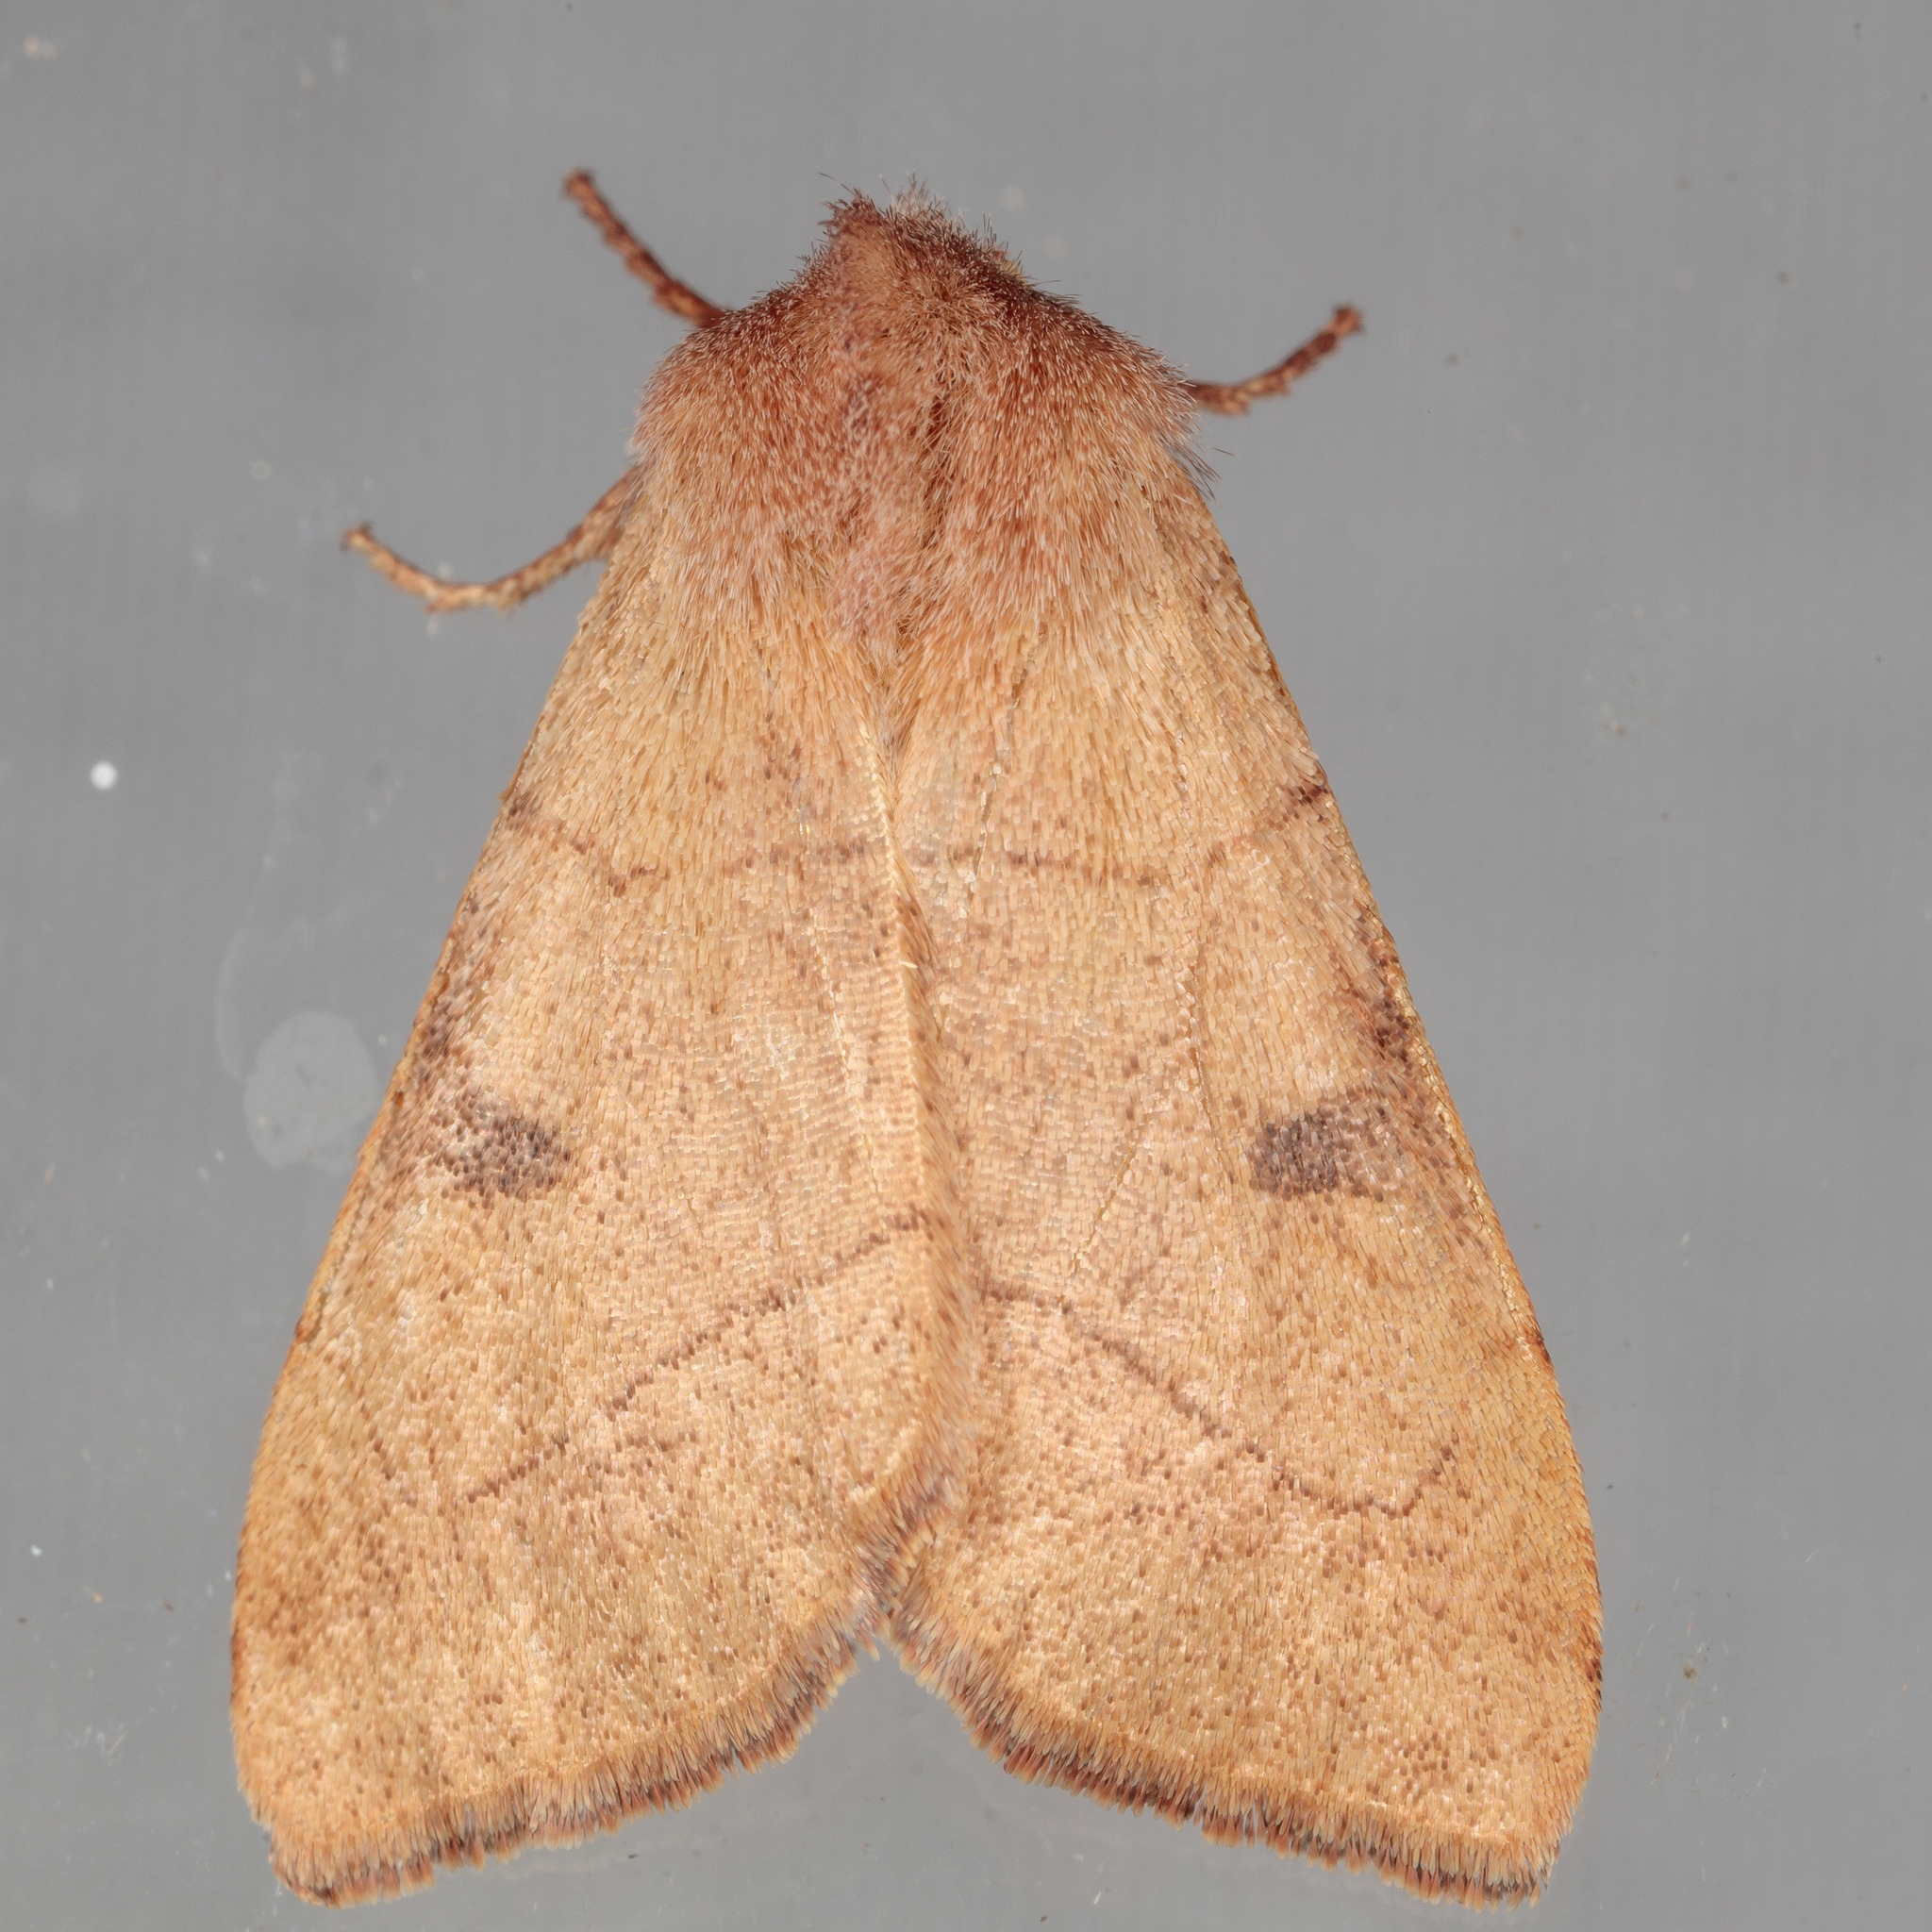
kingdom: Animalia
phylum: Arthropoda
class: Insecta
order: Lepidoptera
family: Noctuidae
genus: Choephora
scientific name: Choephora fungorum
